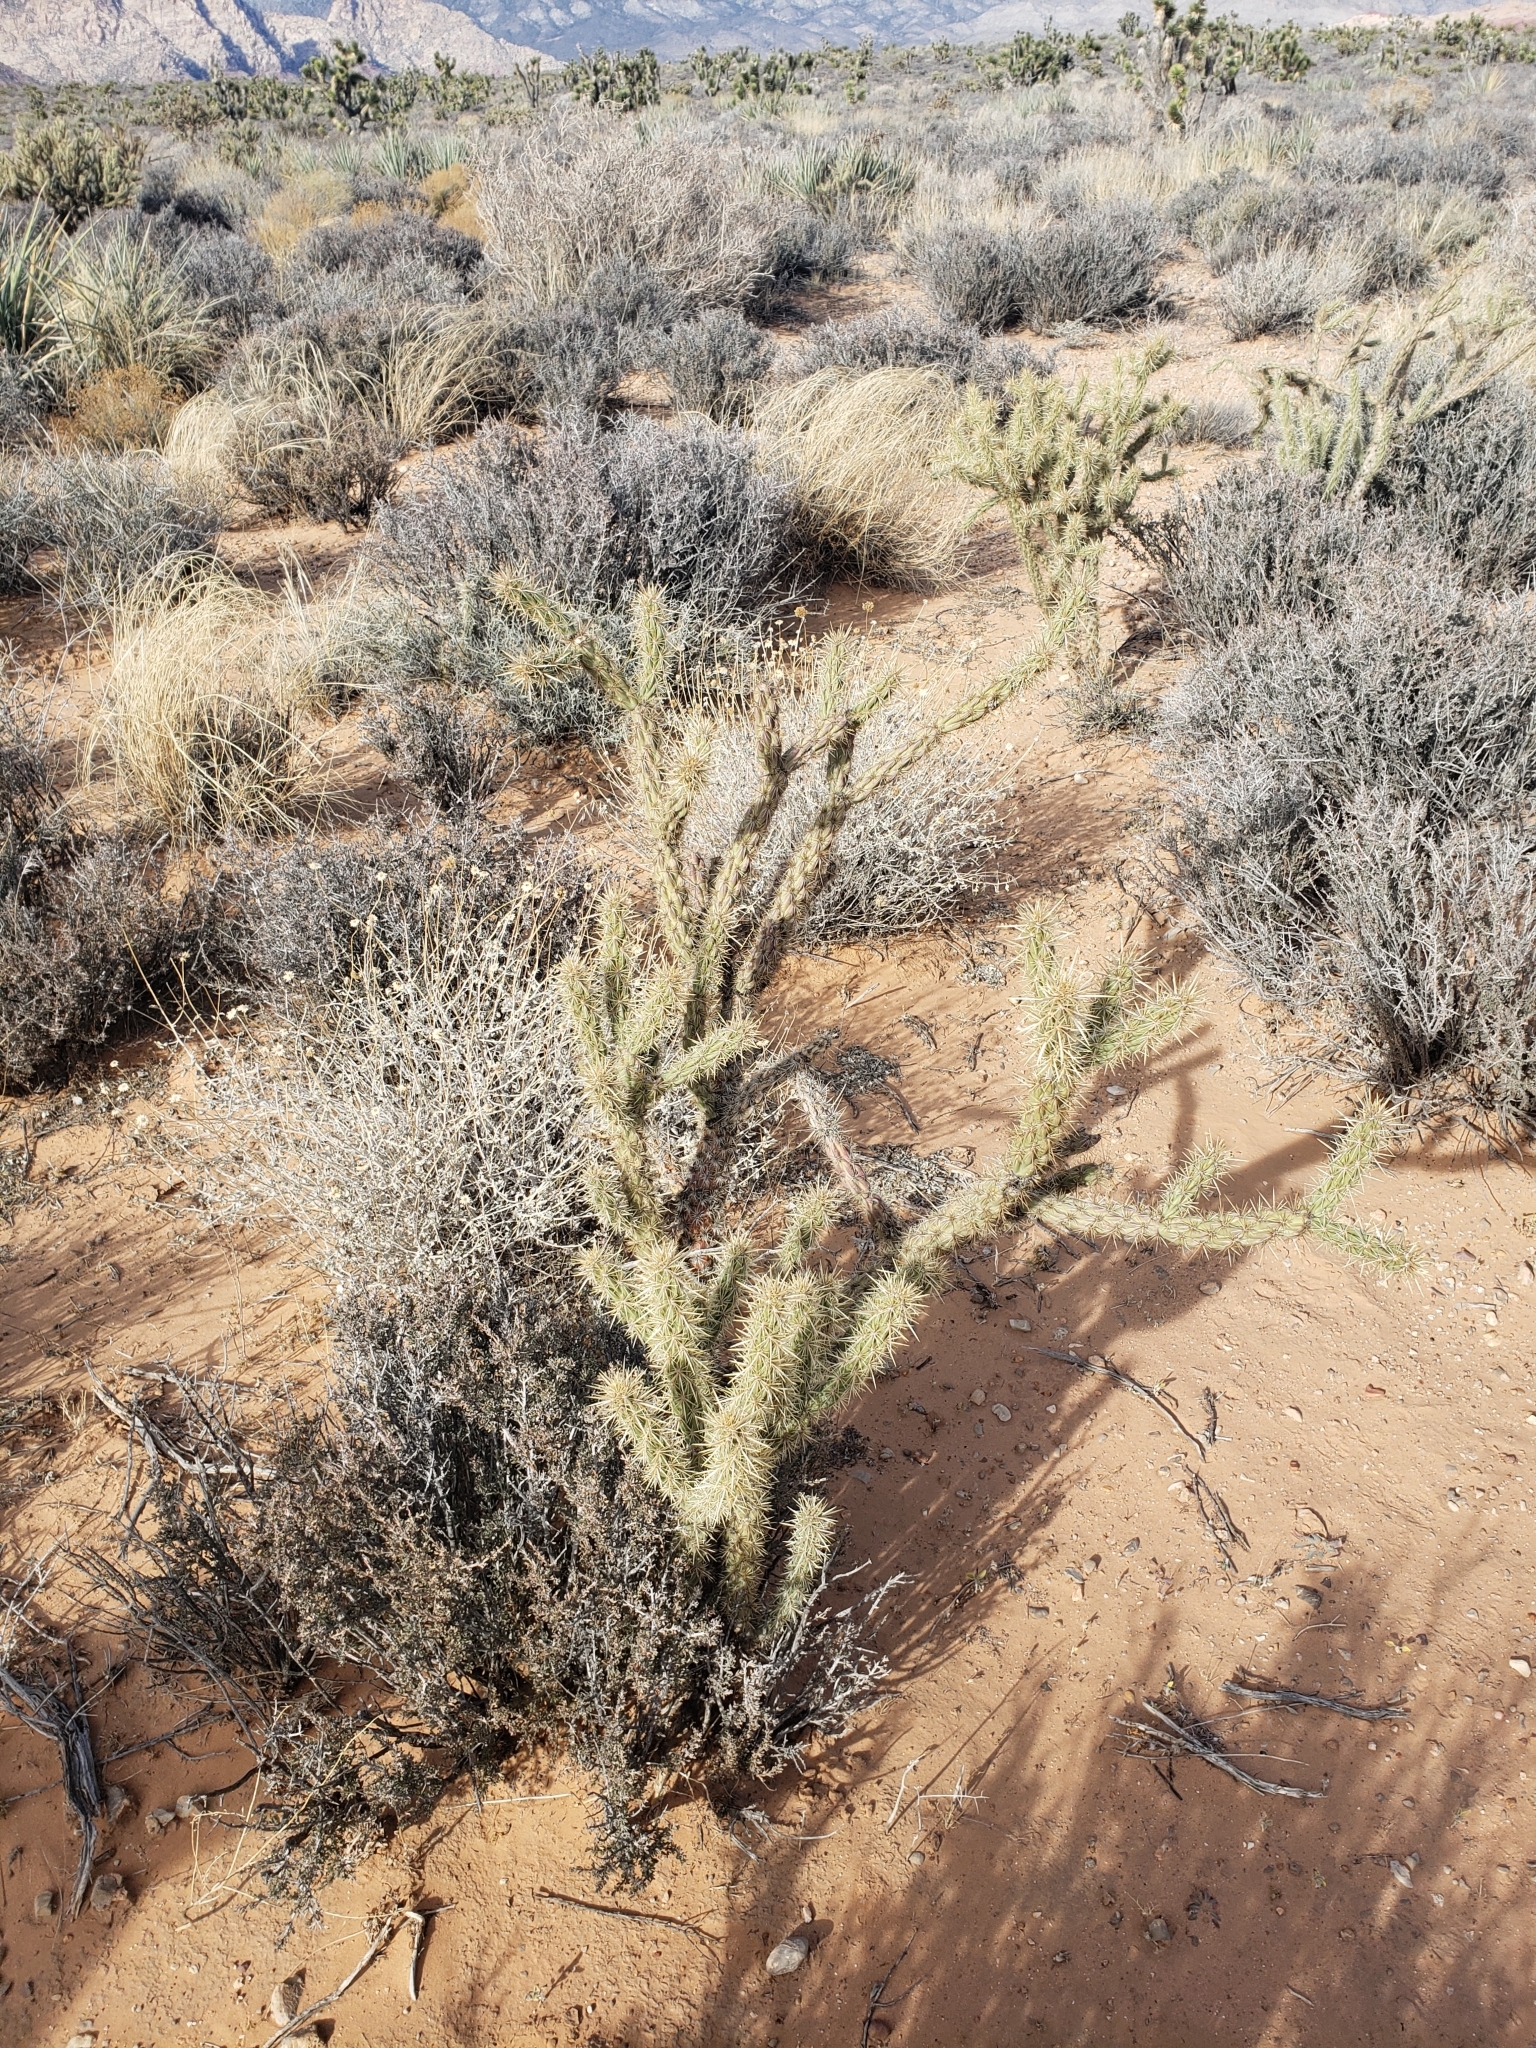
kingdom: Plantae
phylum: Tracheophyta
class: Magnoliopsida
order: Caryophyllales
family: Cactaceae
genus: Cylindropuntia
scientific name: Cylindropuntia acanthocarpa
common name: Buckhorn cholla
